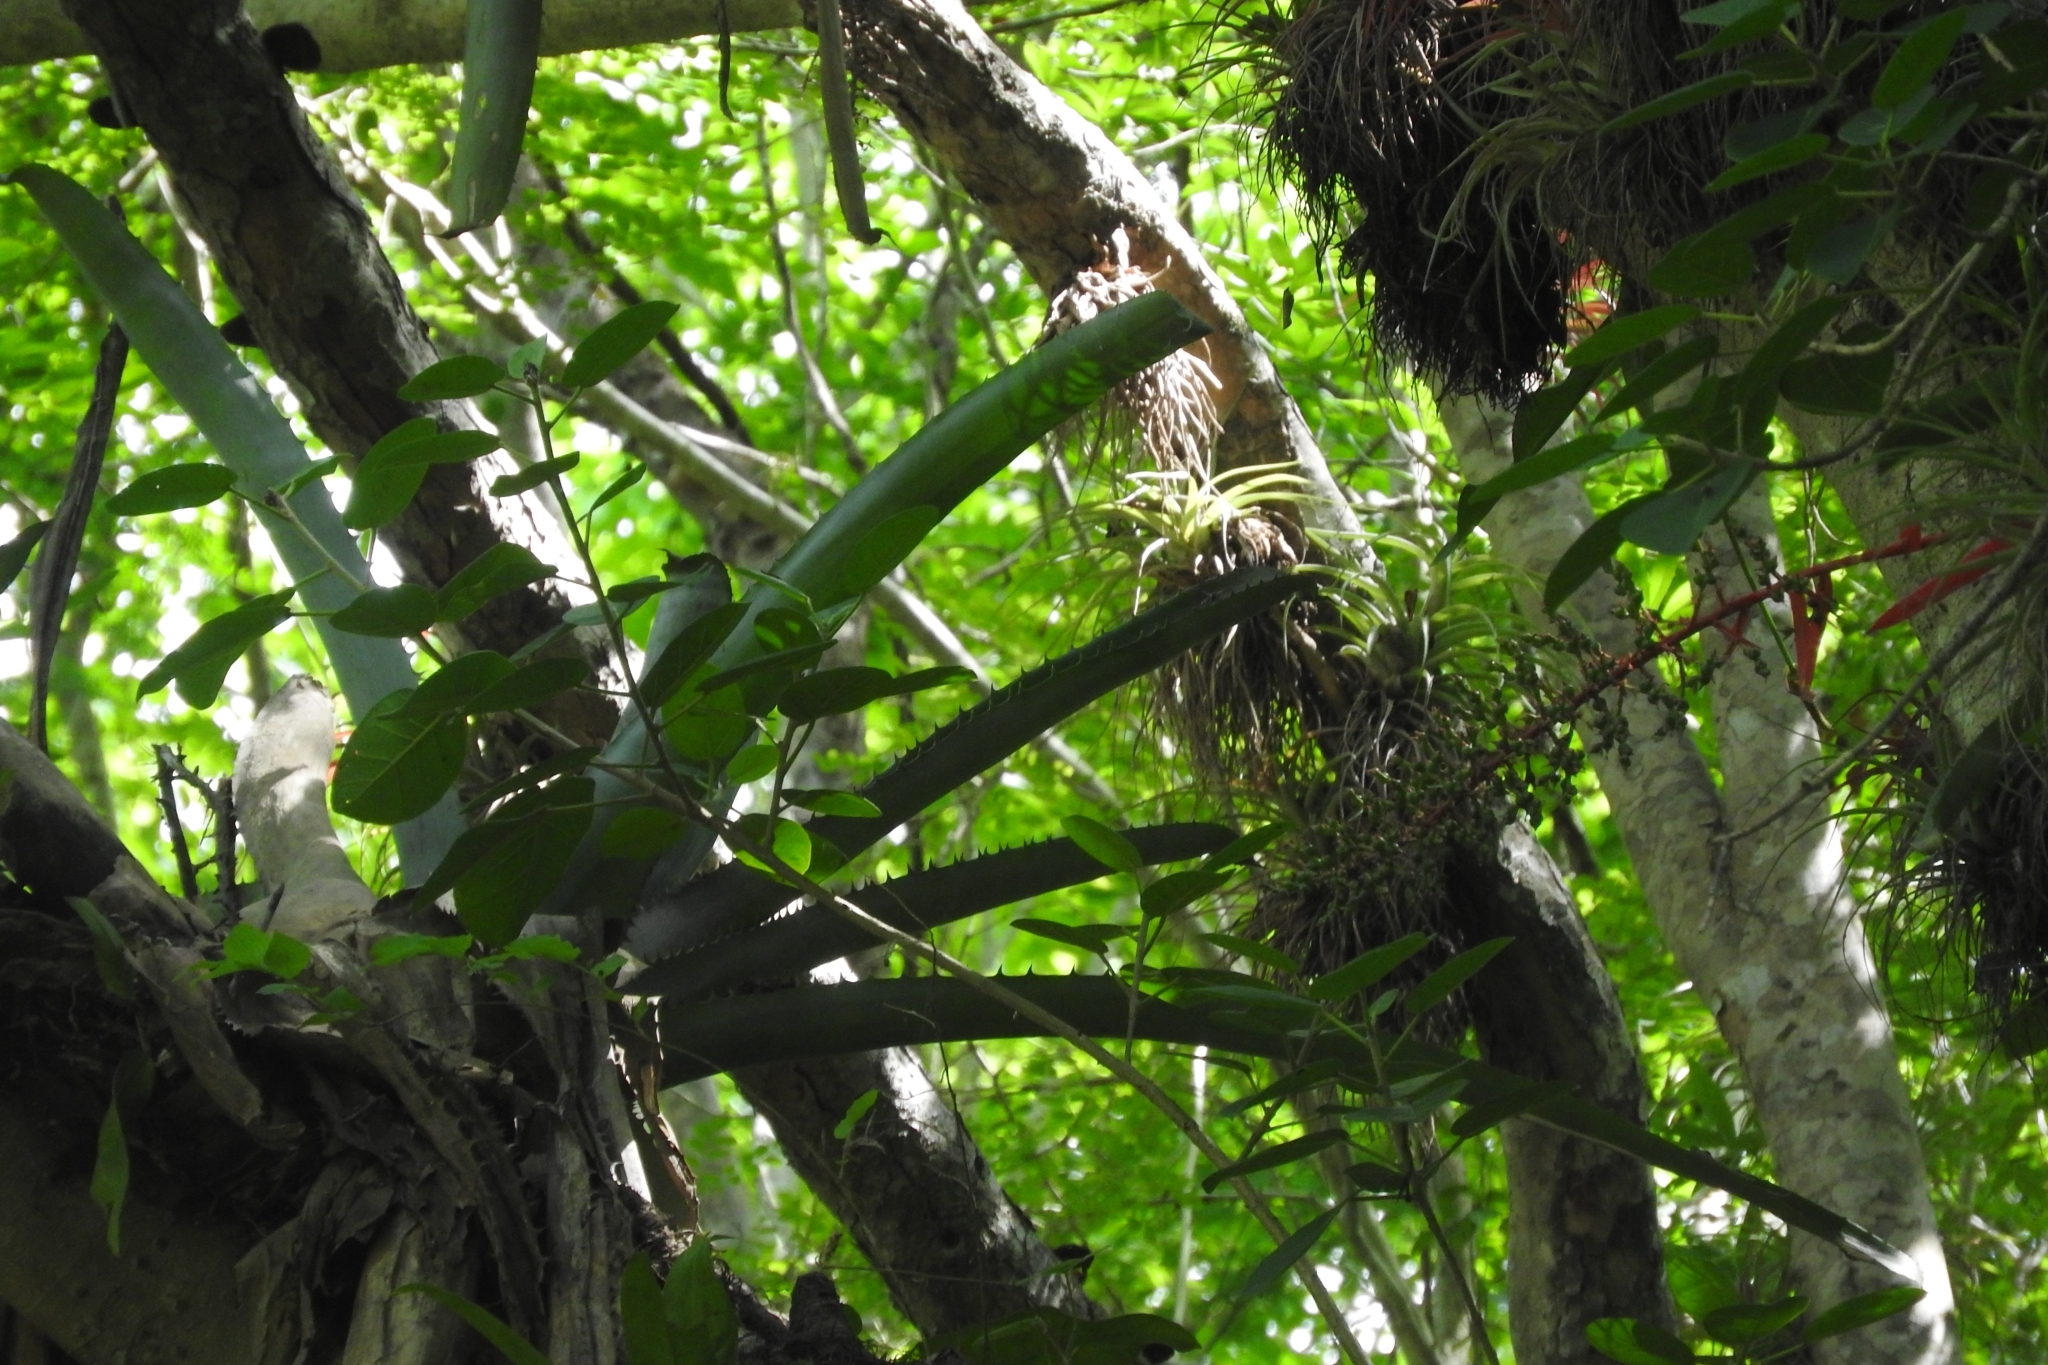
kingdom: Plantae
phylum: Tracheophyta
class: Liliopsida
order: Poales
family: Bromeliaceae
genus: Aechmea
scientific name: Aechmea bracteata
